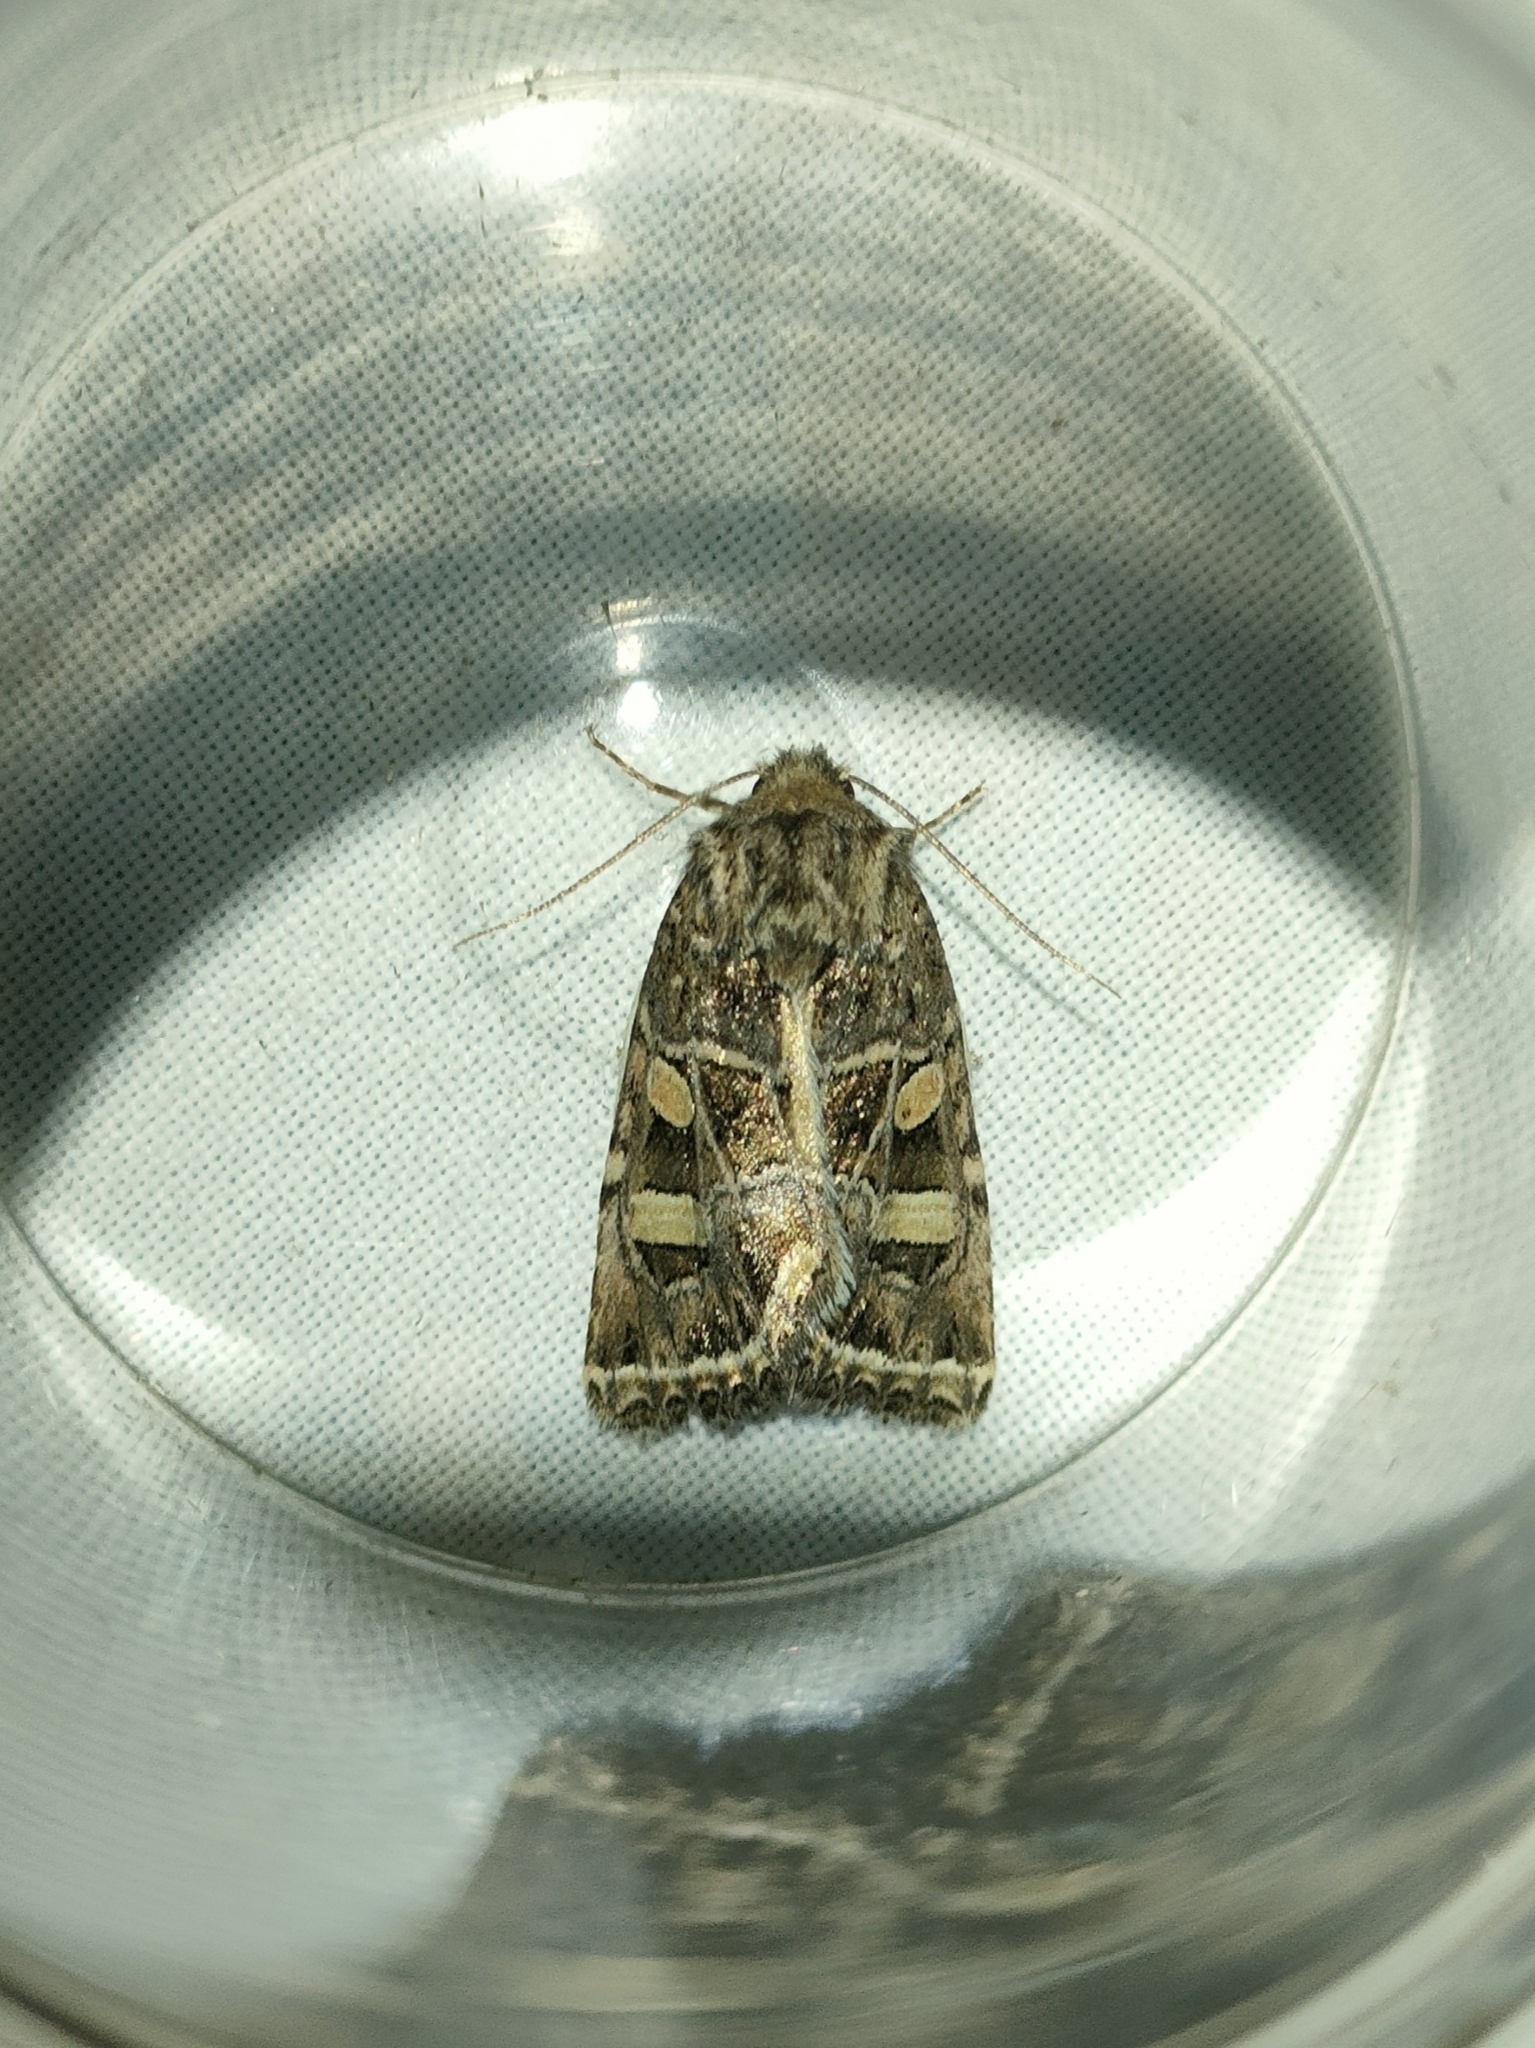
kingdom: Animalia
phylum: Arthropoda
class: Insecta
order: Lepidoptera
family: Noctuidae
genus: Leucochlaena
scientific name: Leucochlaena oditis
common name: Beautiful gothic
